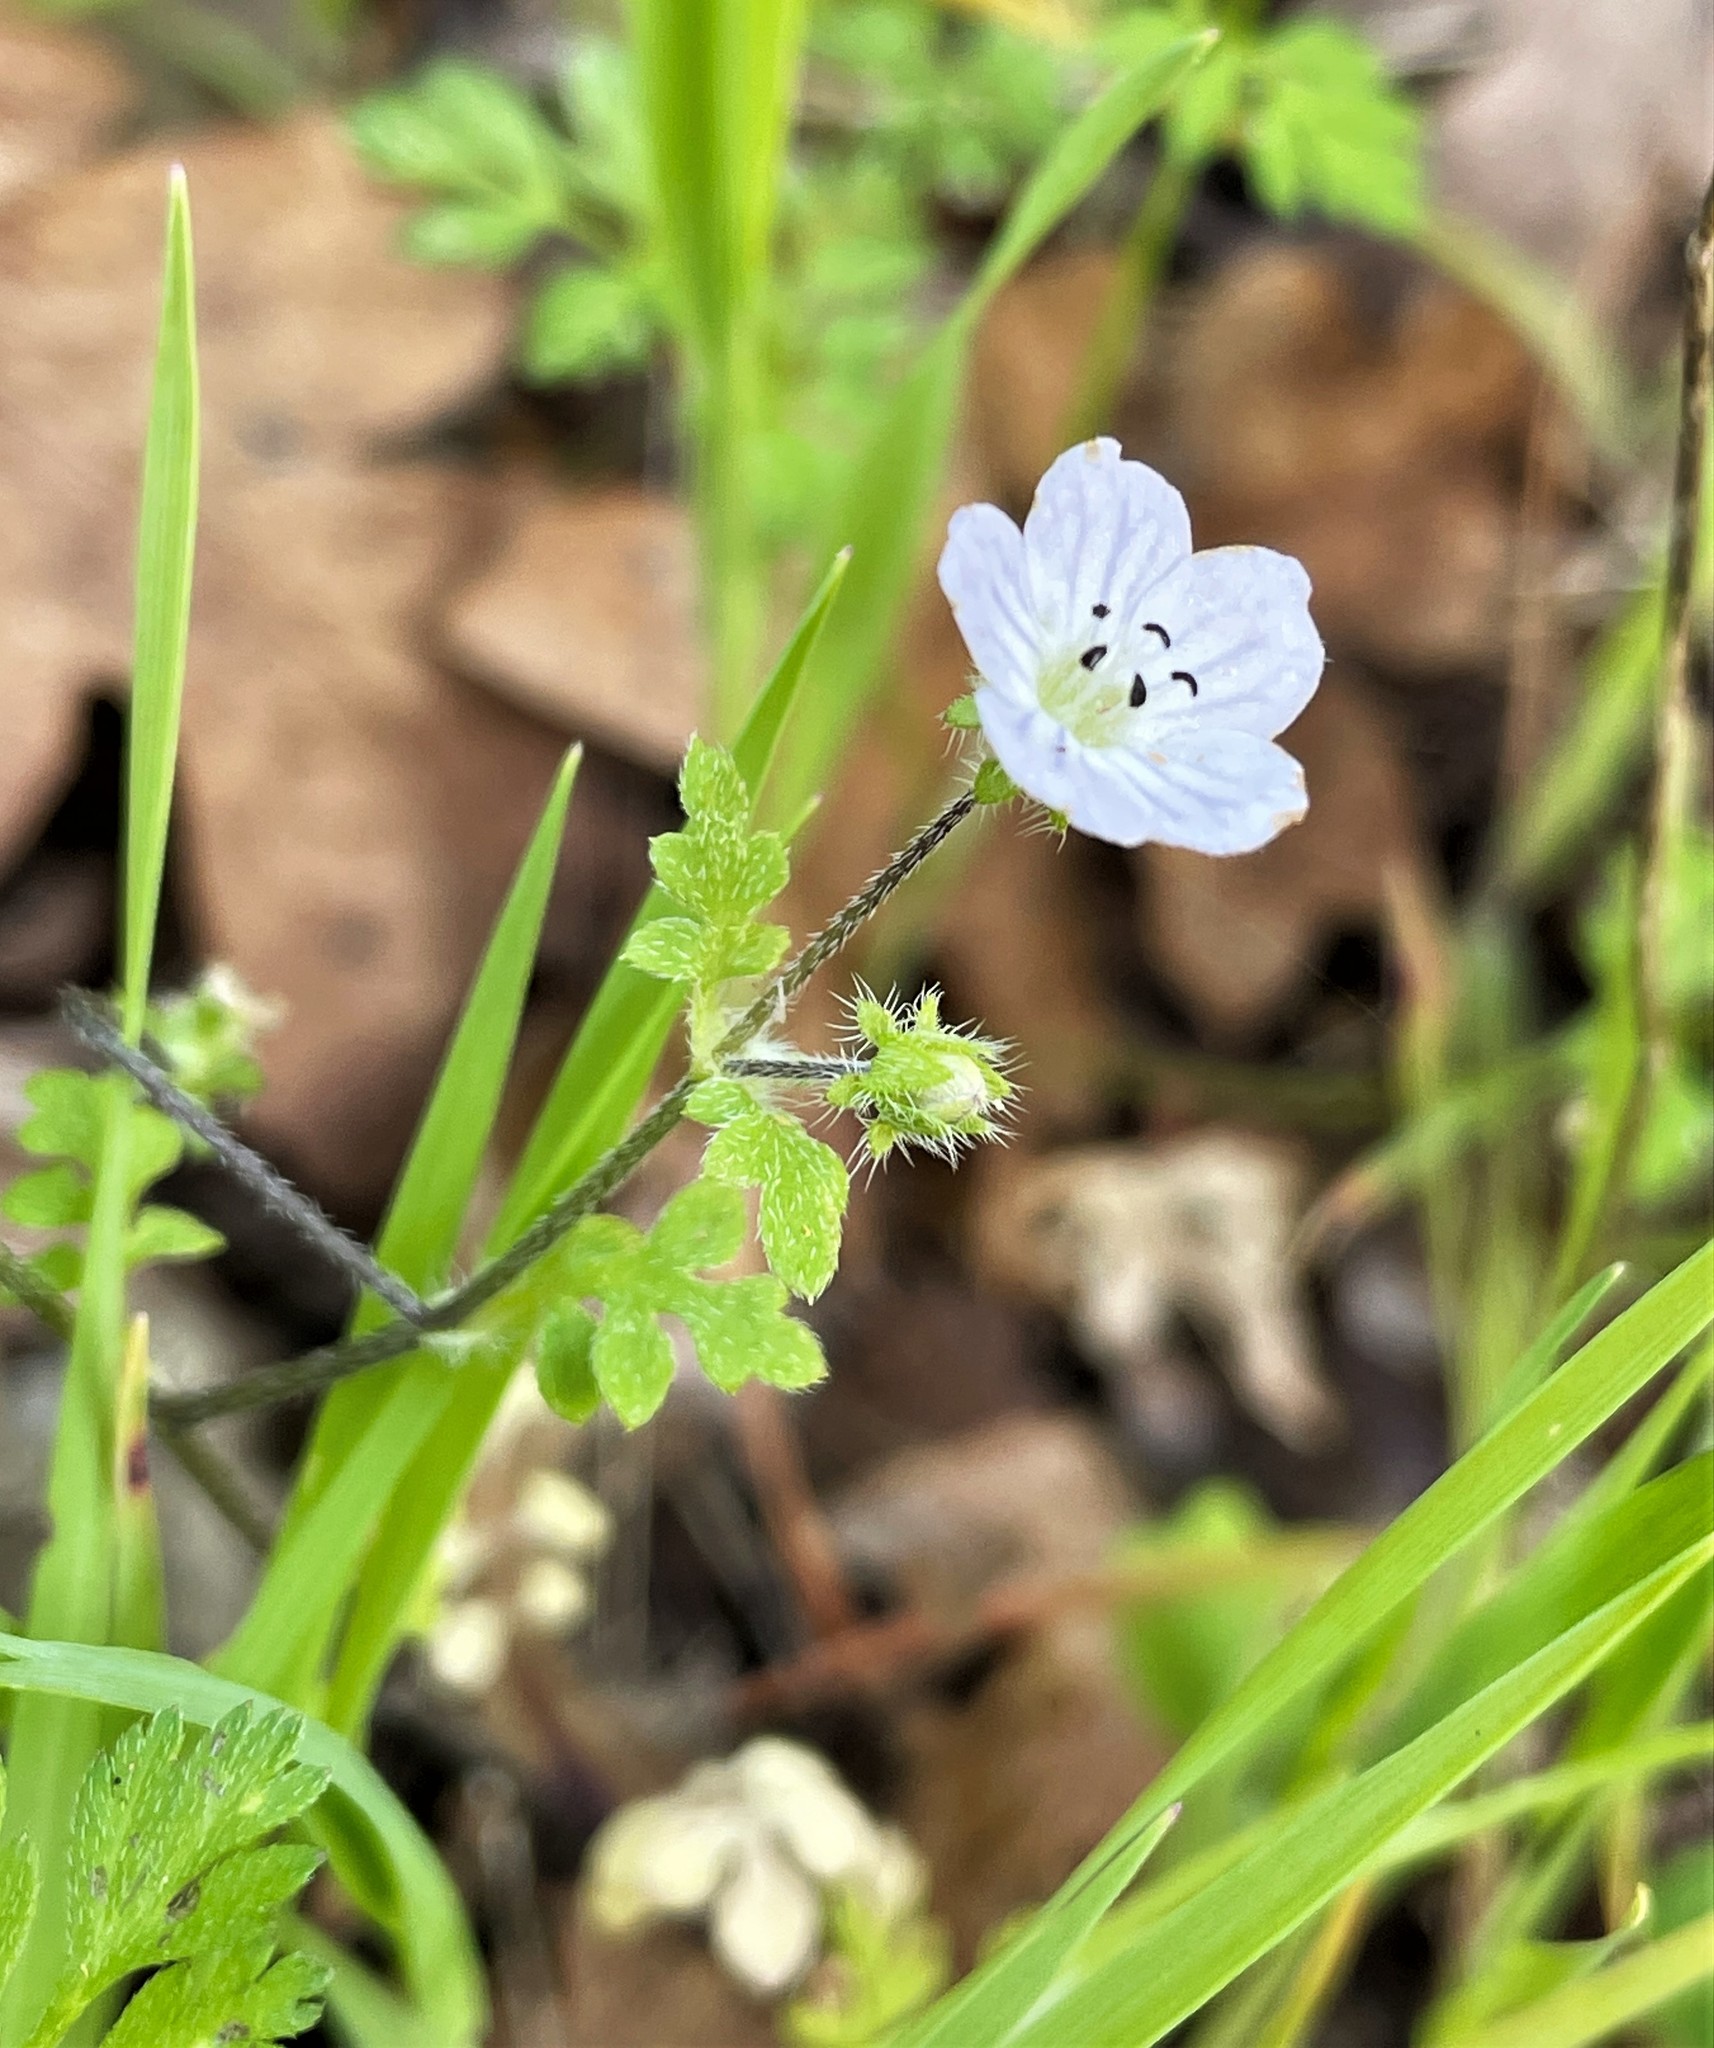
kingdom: Plantae
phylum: Tracheophyta
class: Magnoliopsida
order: Boraginales
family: Hydrophyllaceae
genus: Nemophila
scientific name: Nemophila heterophylla
